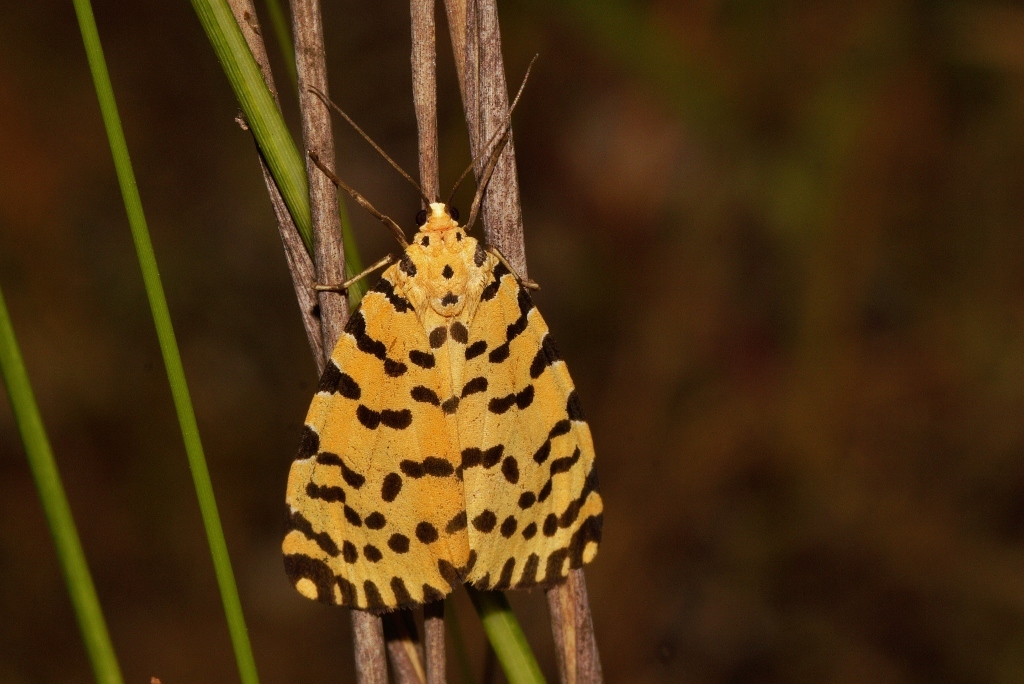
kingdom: Animalia
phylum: Arthropoda
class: Insecta
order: Lepidoptera
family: Erebidae
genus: Argina
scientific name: Argina Alytarchia amanda
